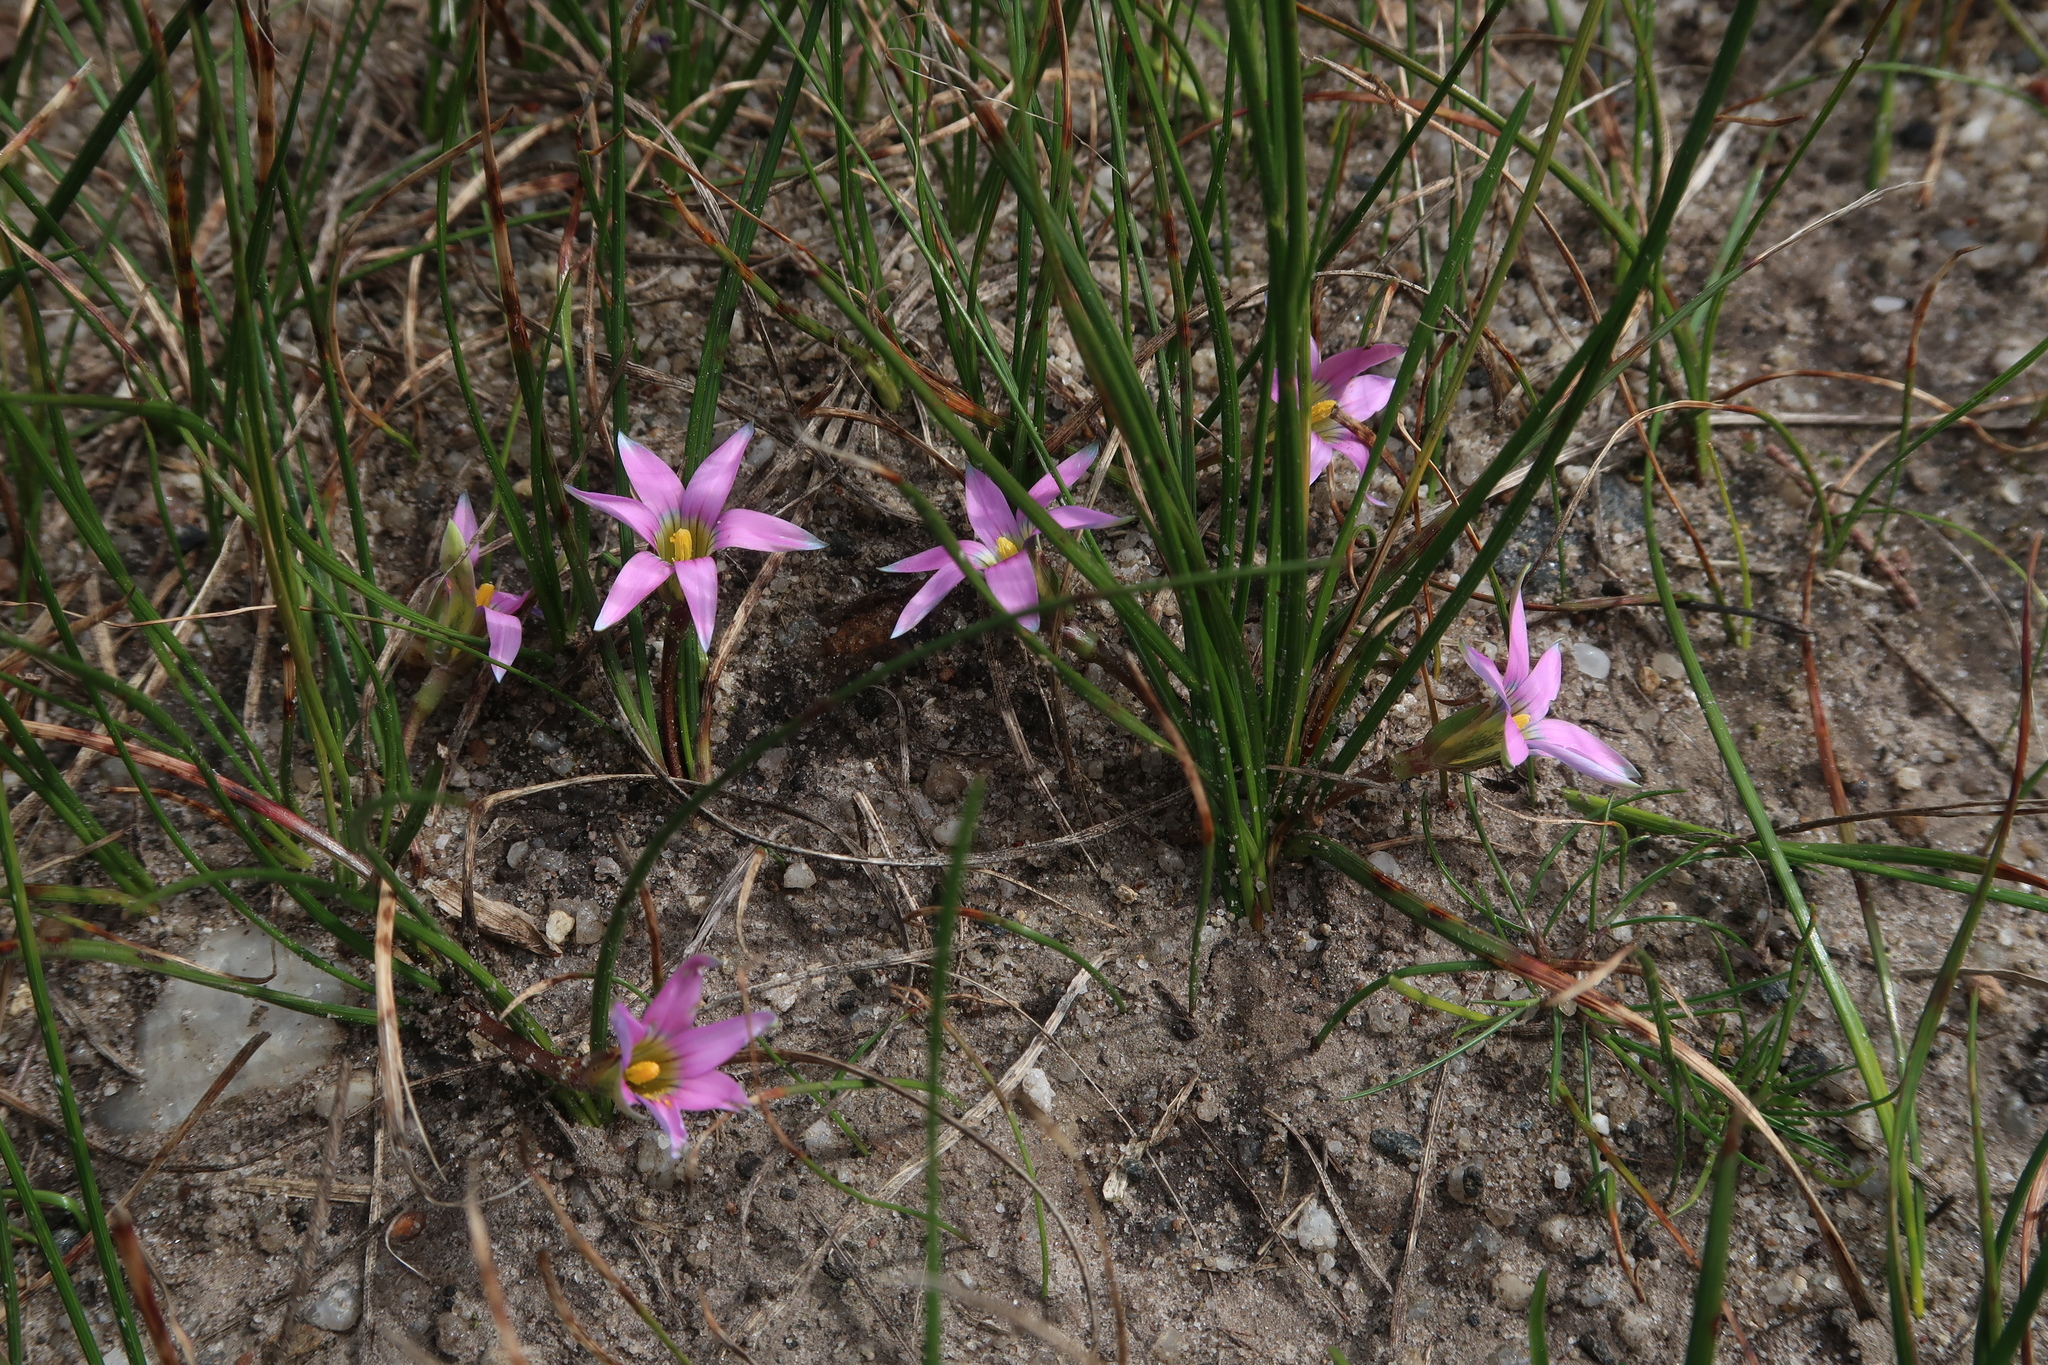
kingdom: Plantae
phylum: Tracheophyta
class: Liliopsida
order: Asparagales
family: Iridaceae
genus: Romulea
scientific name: Romulea rosea
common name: Oniongrass
